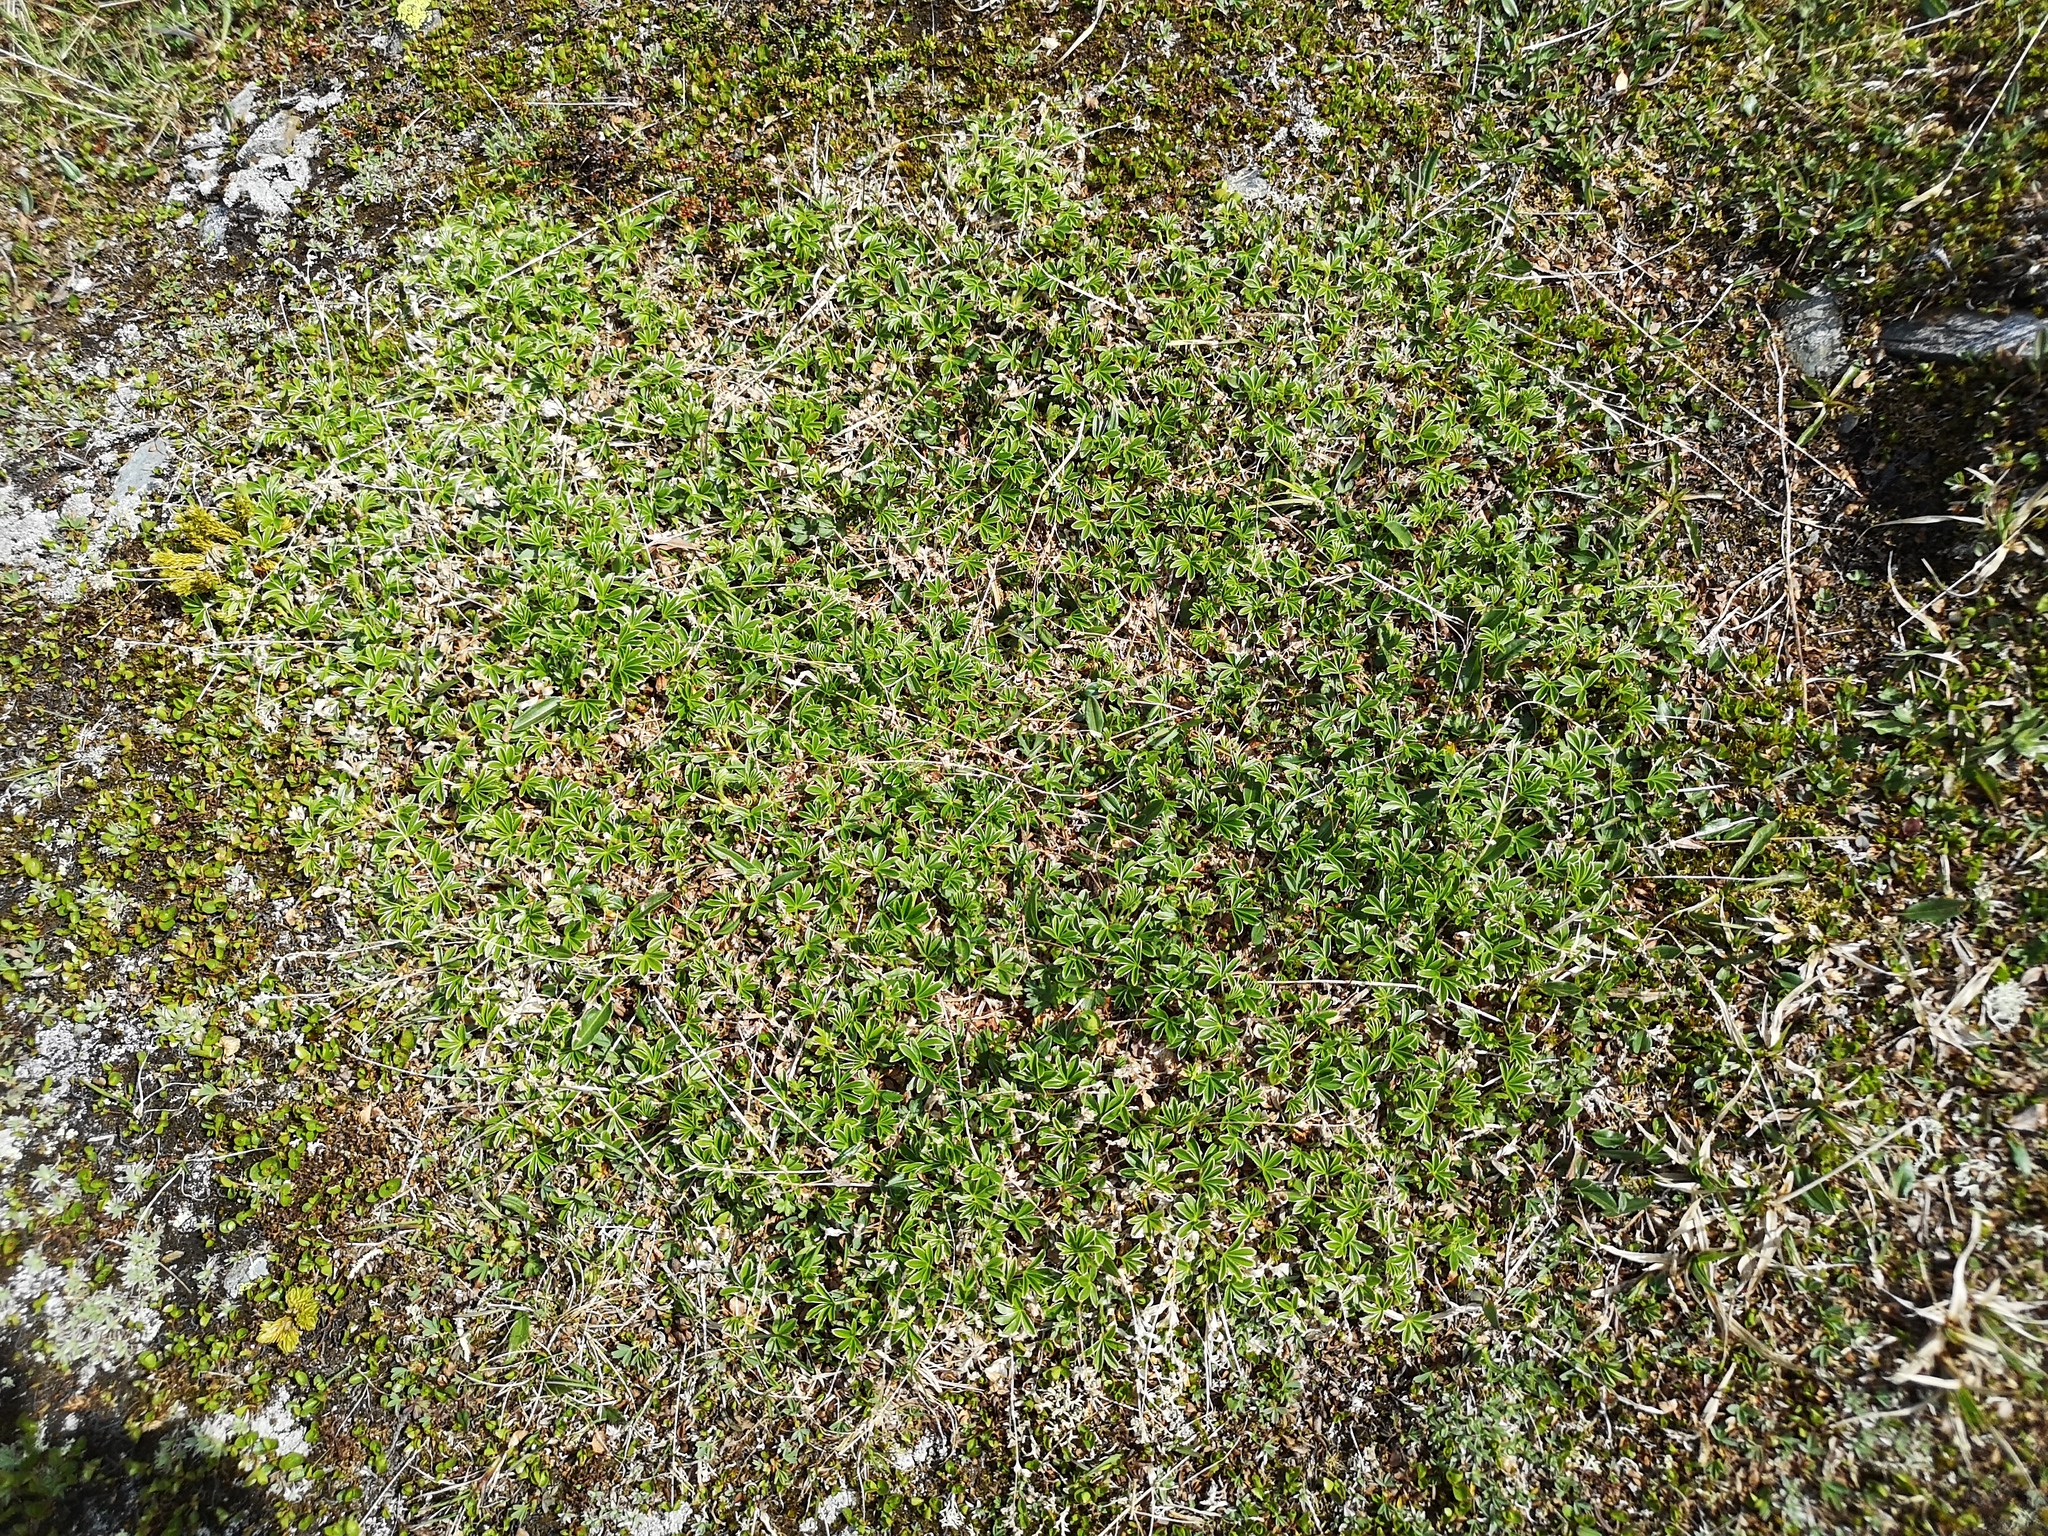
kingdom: Plantae
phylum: Tracheophyta
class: Magnoliopsida
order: Rosales
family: Rosaceae
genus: Alchemilla
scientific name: Alchemilla alpina
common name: Alpine lady's-mantle
